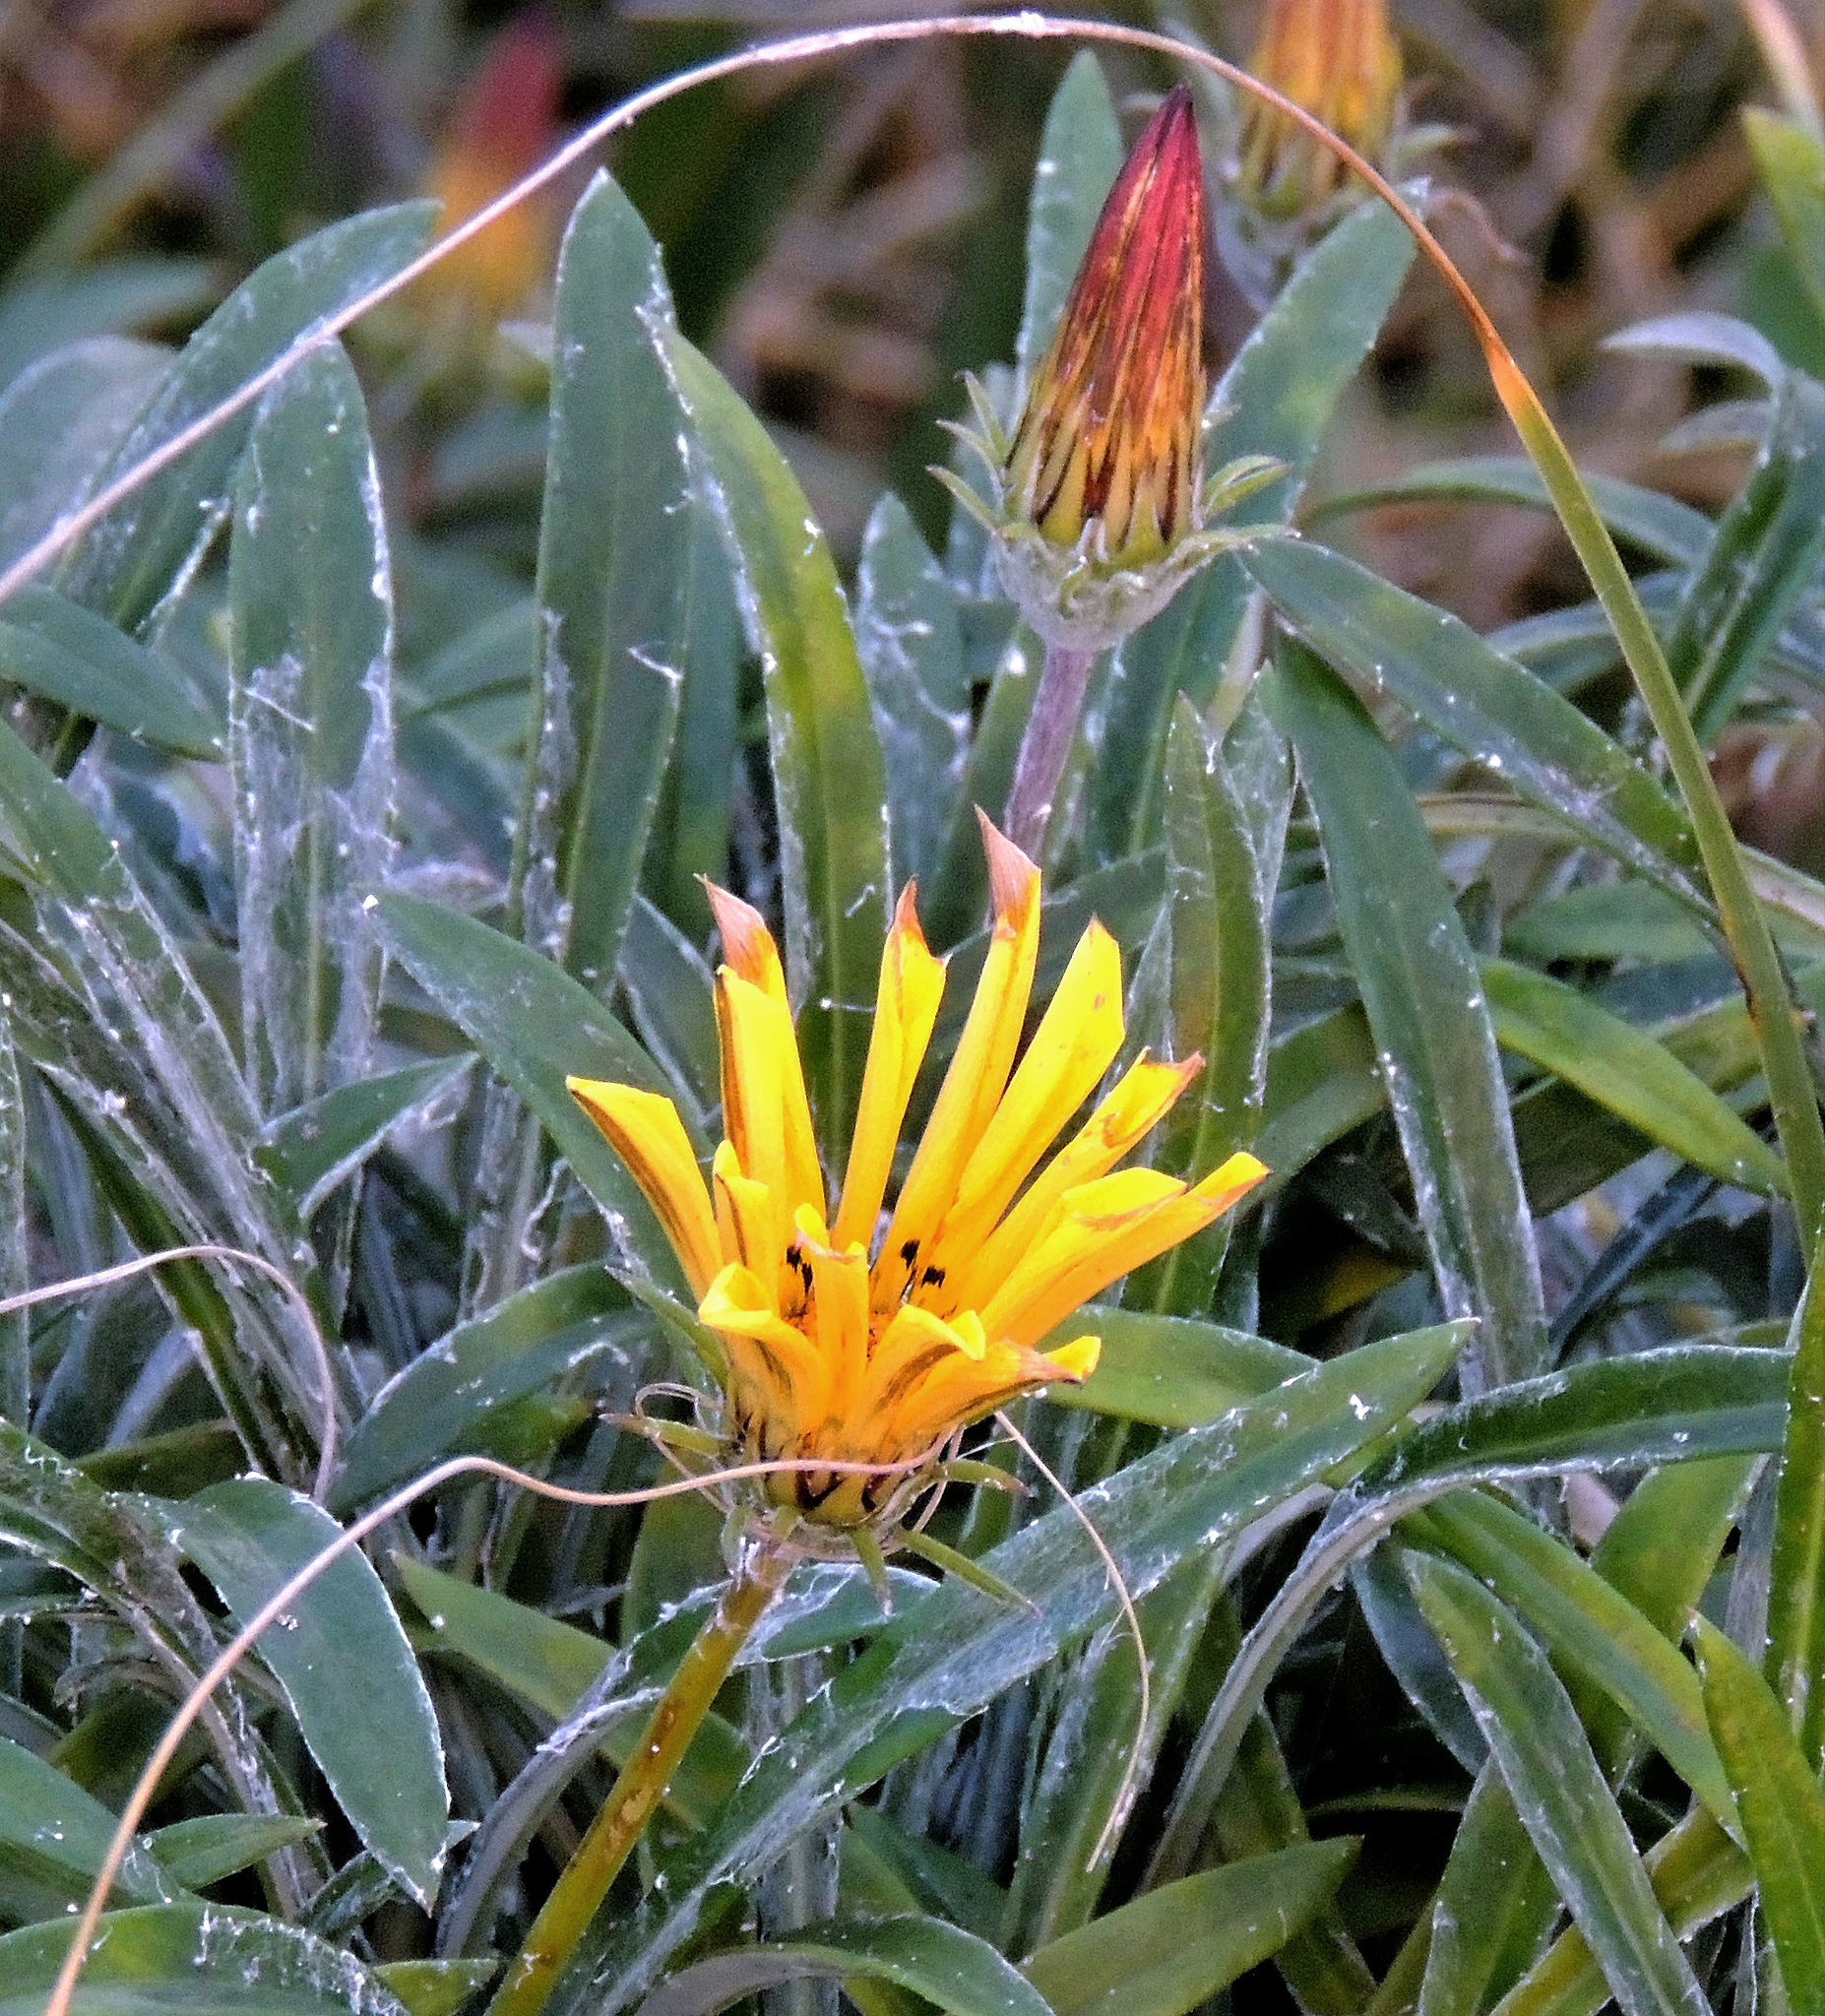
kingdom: Plantae
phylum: Tracheophyta
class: Magnoliopsida
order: Asterales
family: Asteraceae
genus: Gazania
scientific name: Gazania splendens
